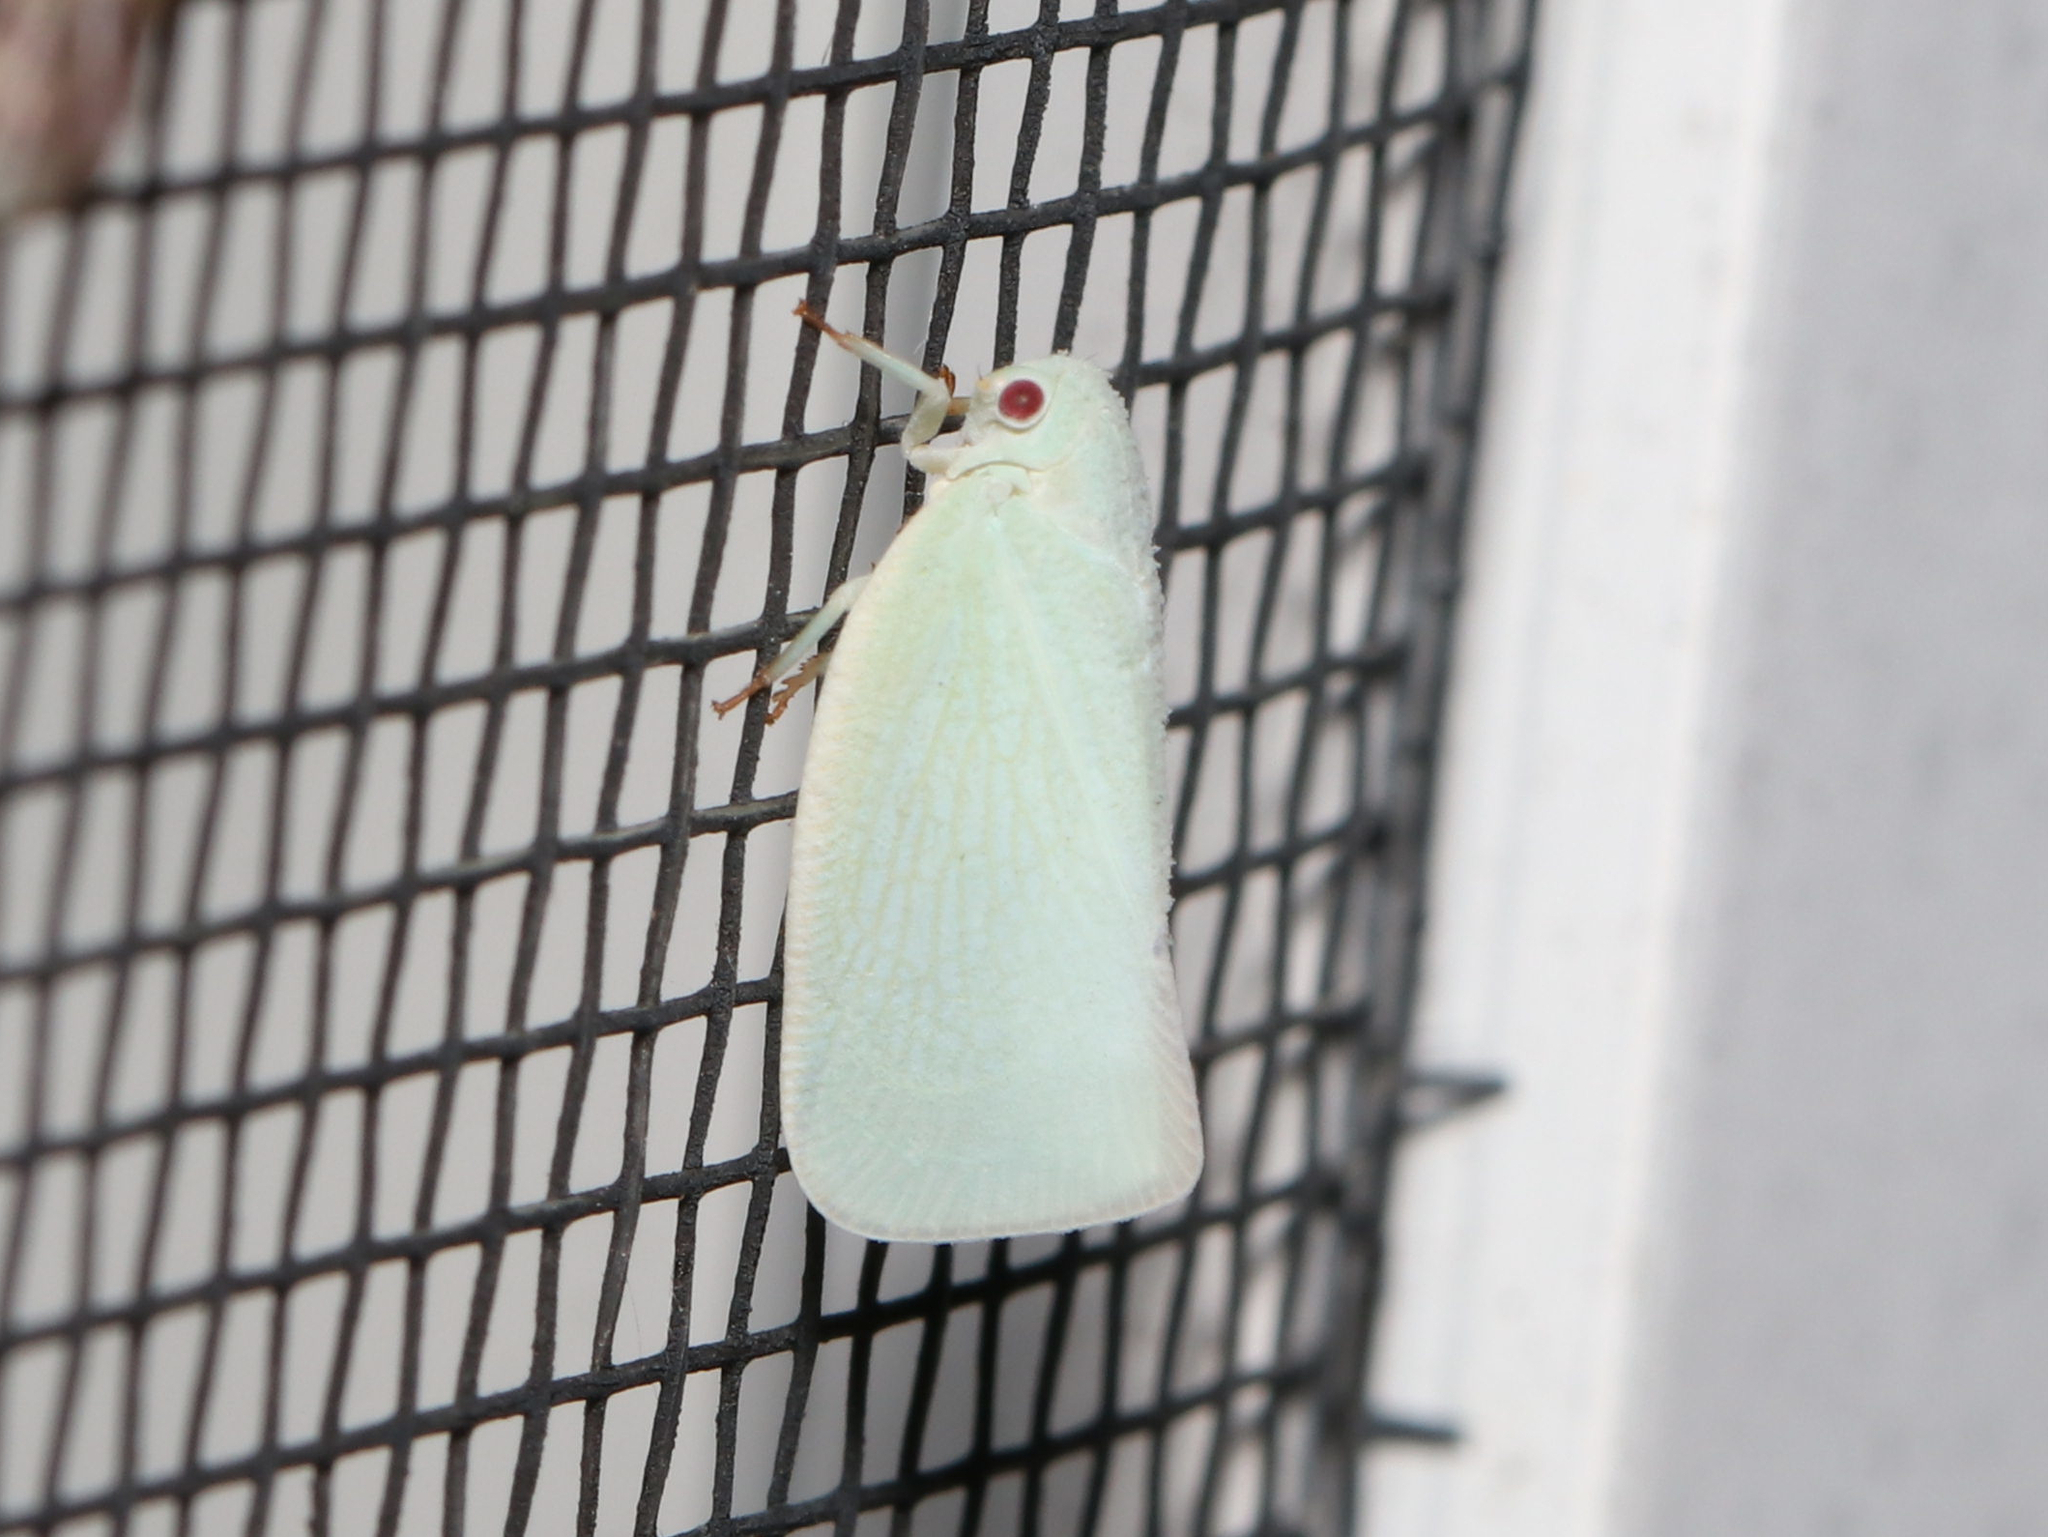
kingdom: Animalia
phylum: Arthropoda
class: Insecta
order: Hemiptera
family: Flatidae
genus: Flatormenis
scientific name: Flatormenis proxima
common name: Northern flatid planthopper
